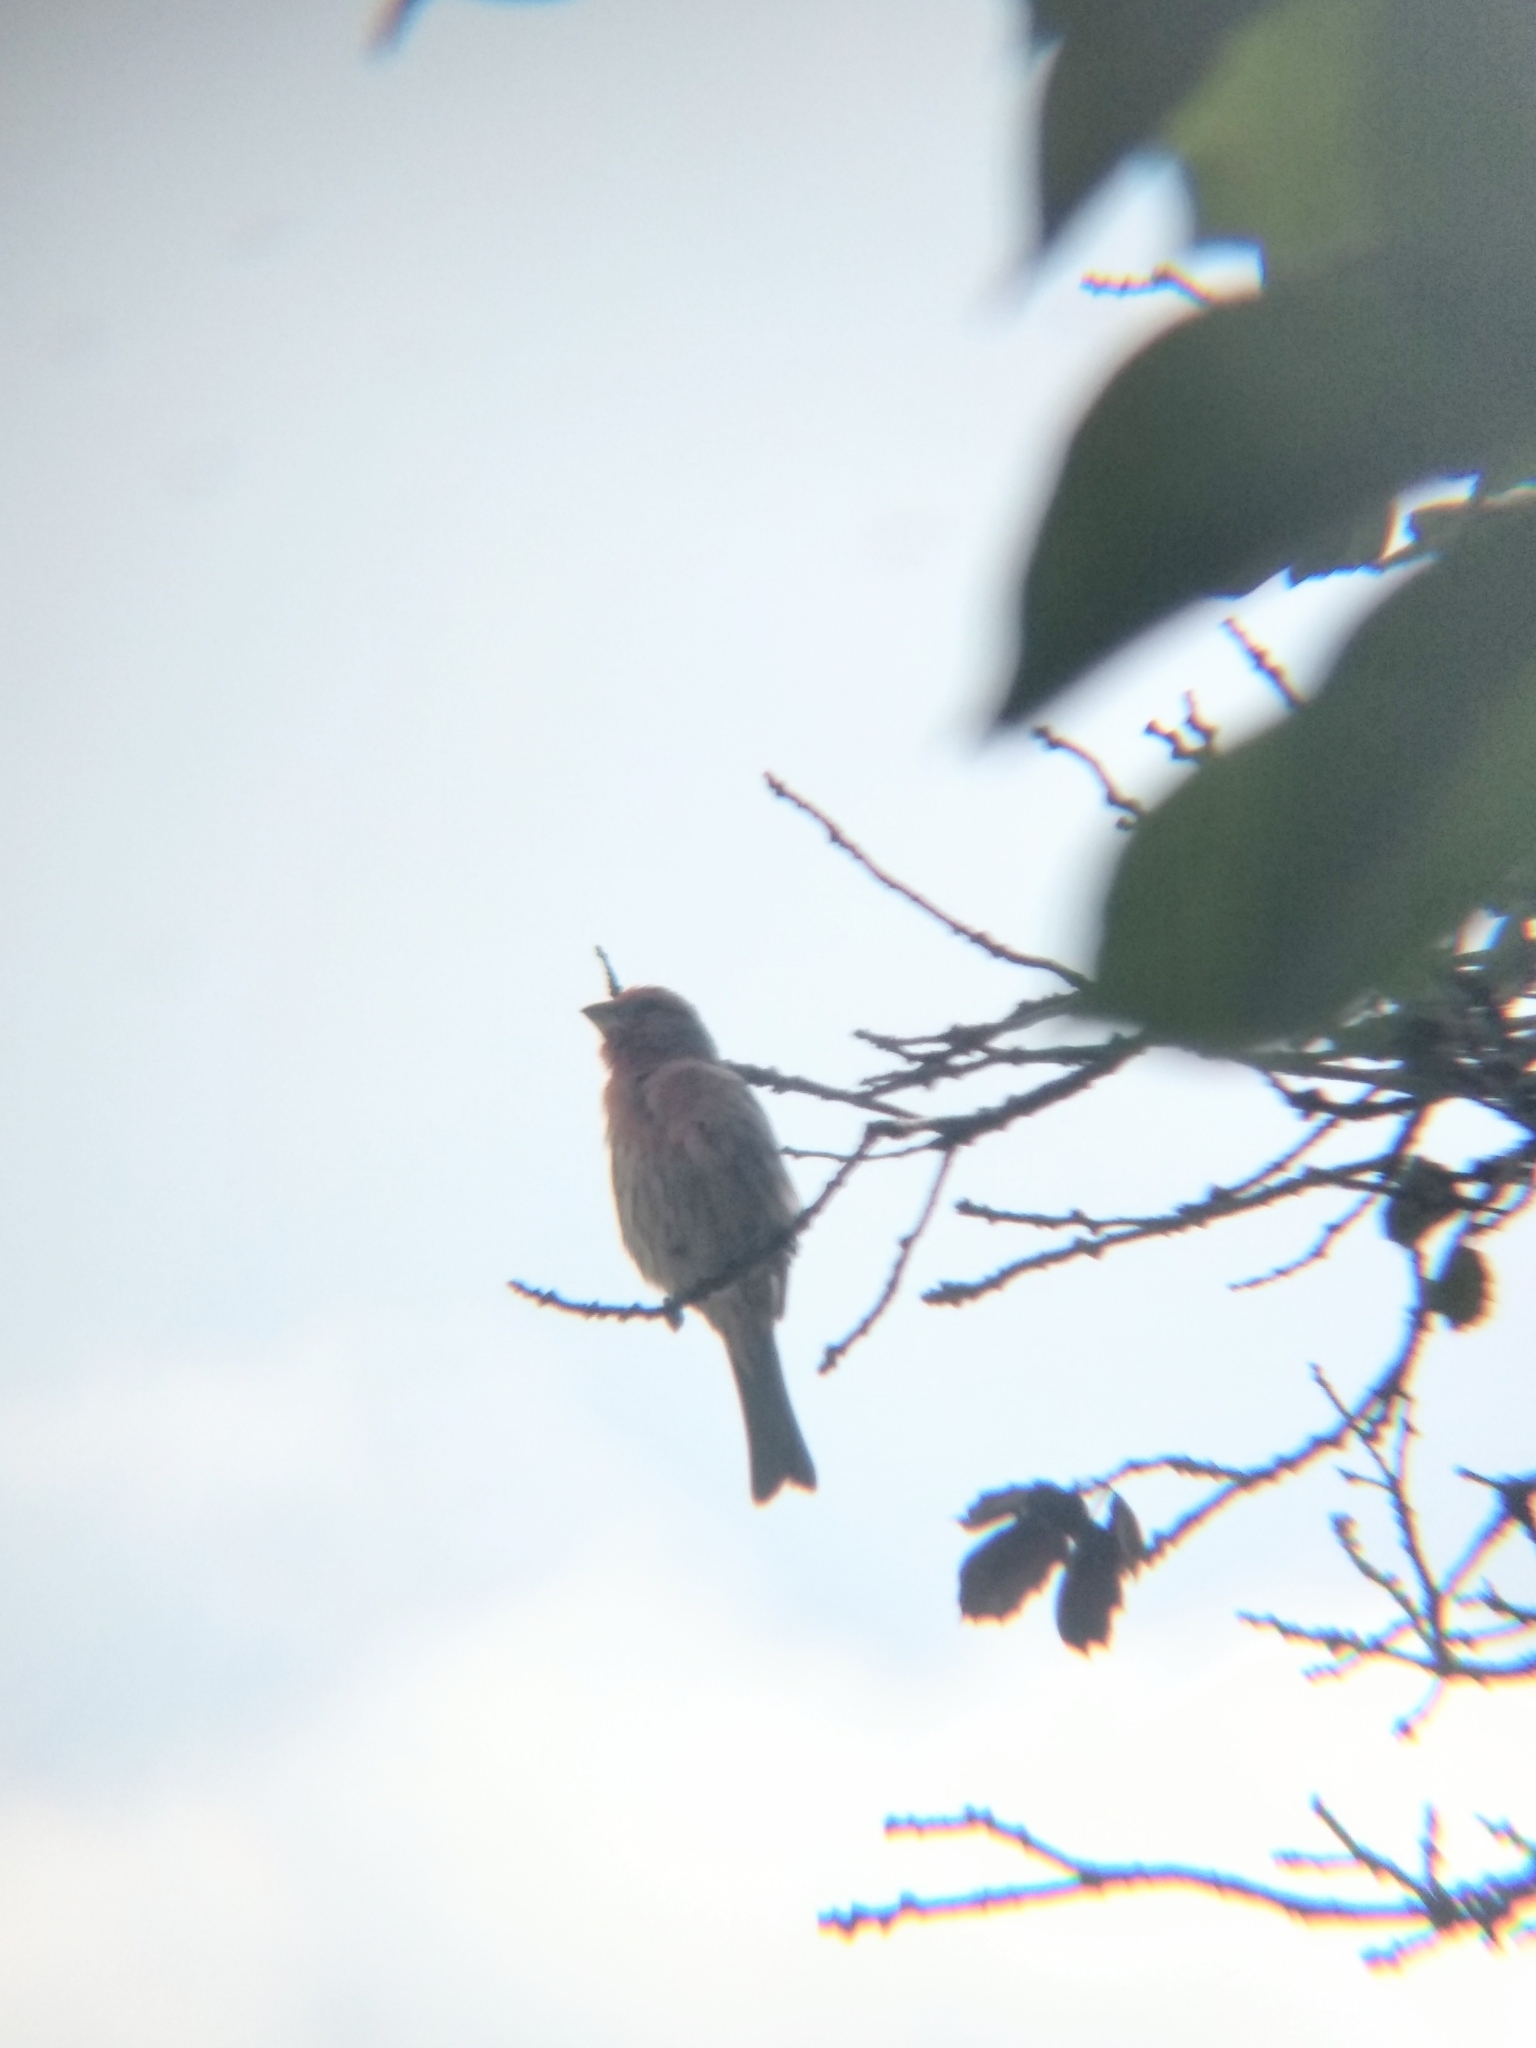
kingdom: Animalia
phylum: Chordata
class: Aves
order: Passeriformes
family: Fringillidae
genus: Haemorhous
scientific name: Haemorhous mexicanus
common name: House finch
